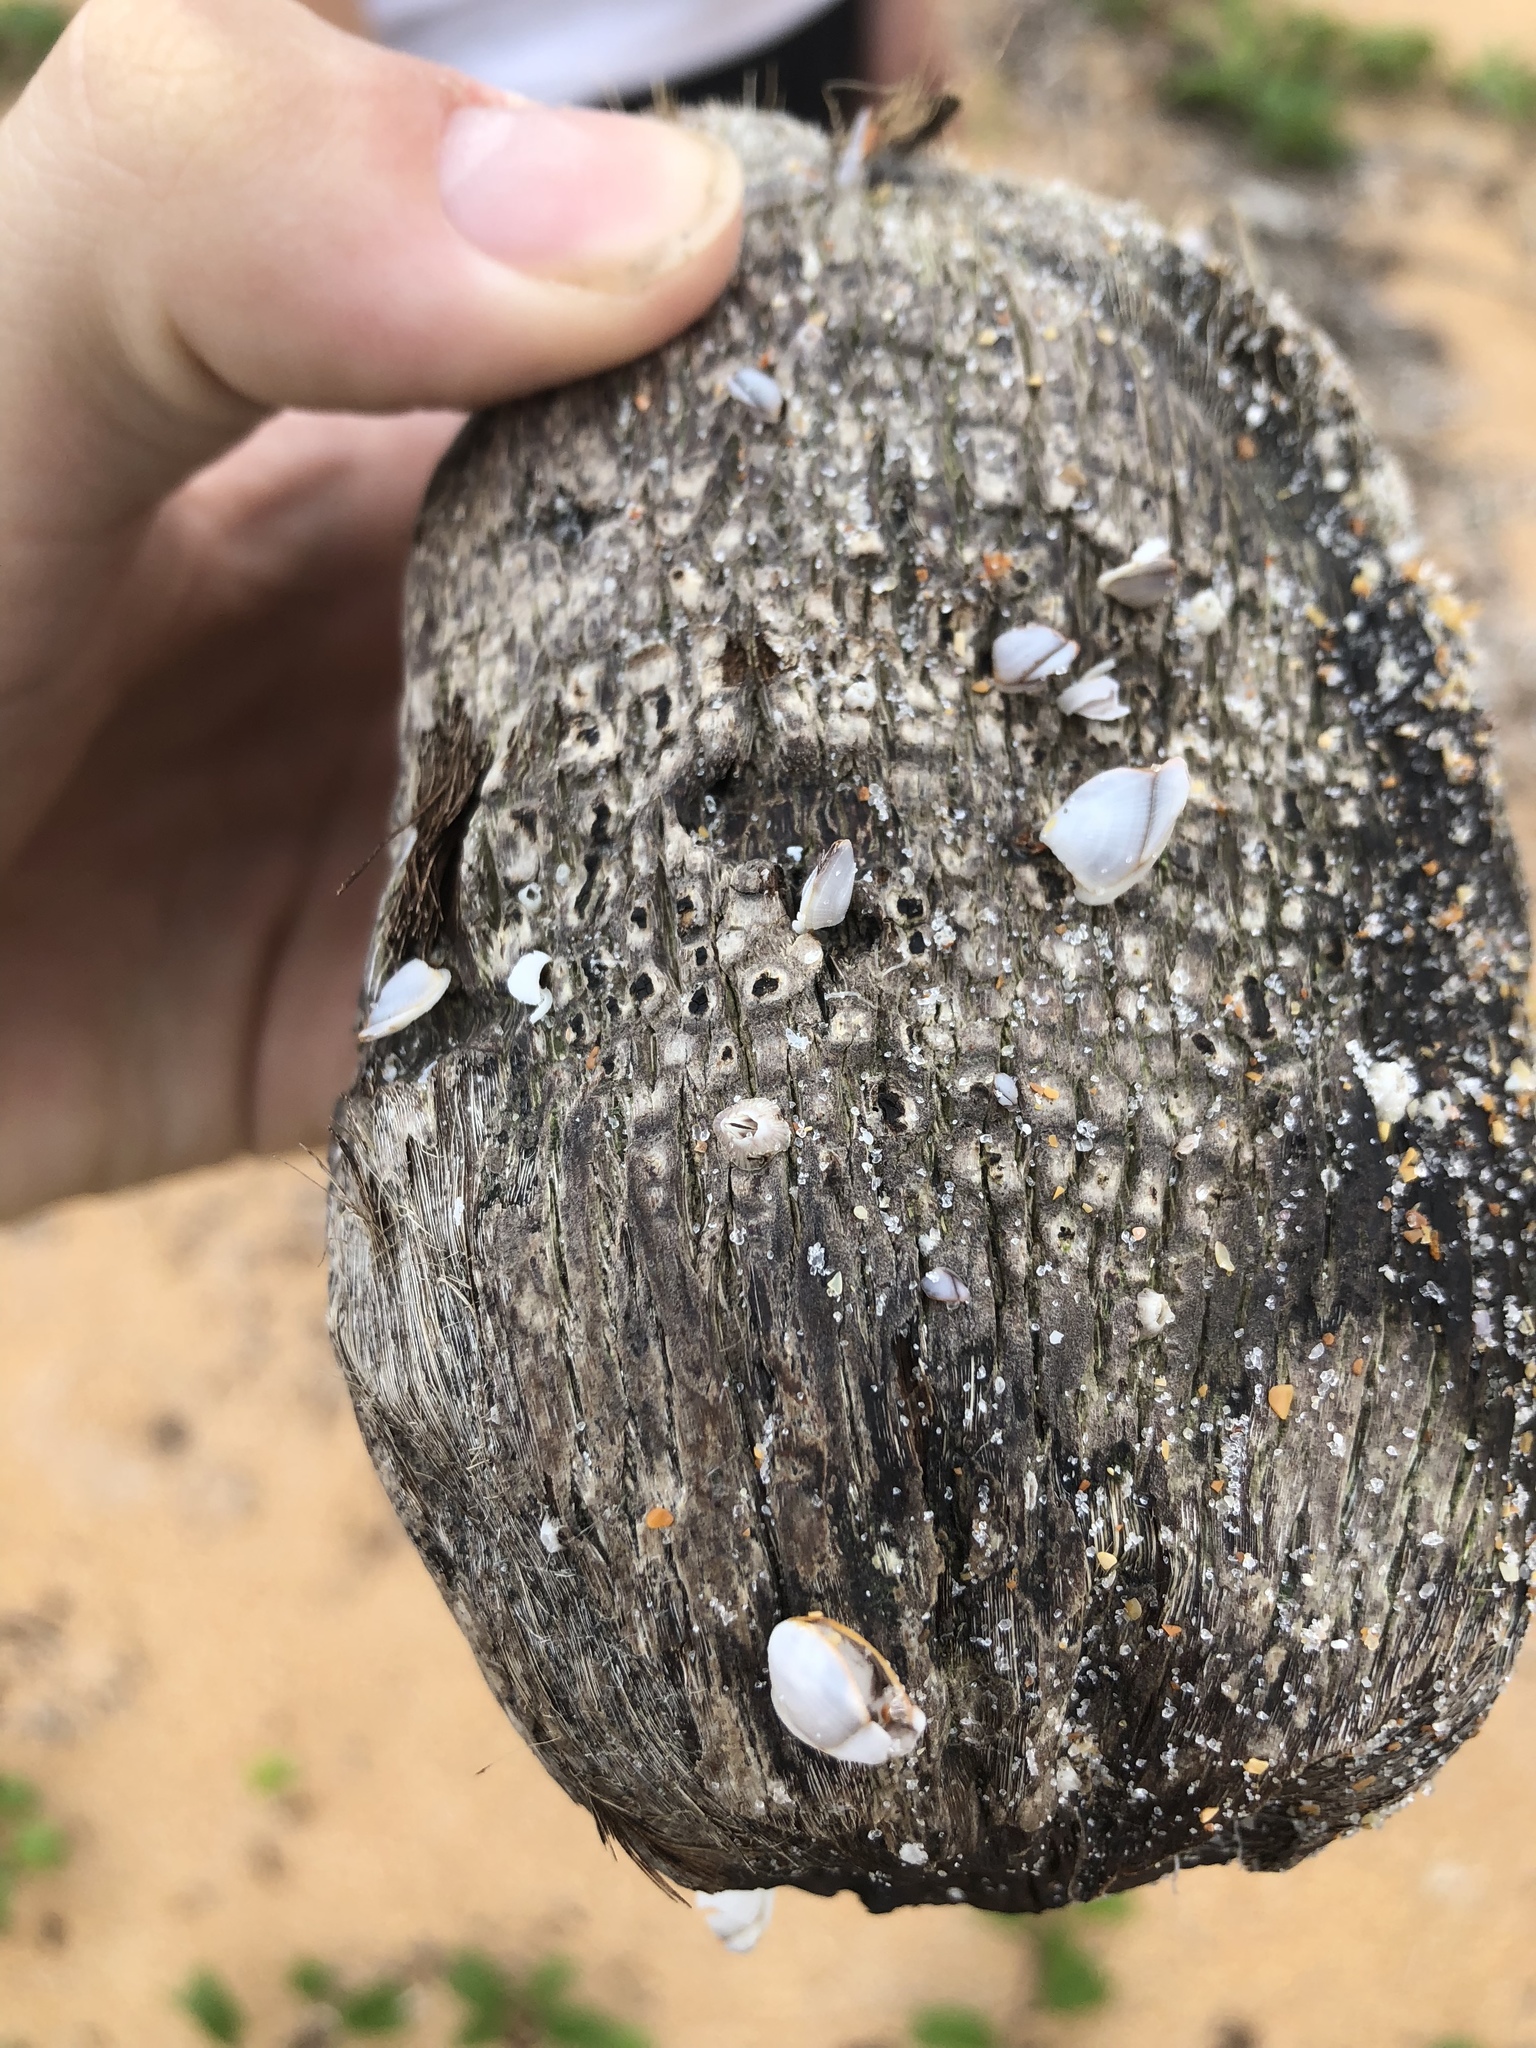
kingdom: Animalia
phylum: Arthropoda
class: Maxillopoda
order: Pedunculata
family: Lepadidae
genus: Lepas
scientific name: Lepas anserifera
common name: Goose barnacle
